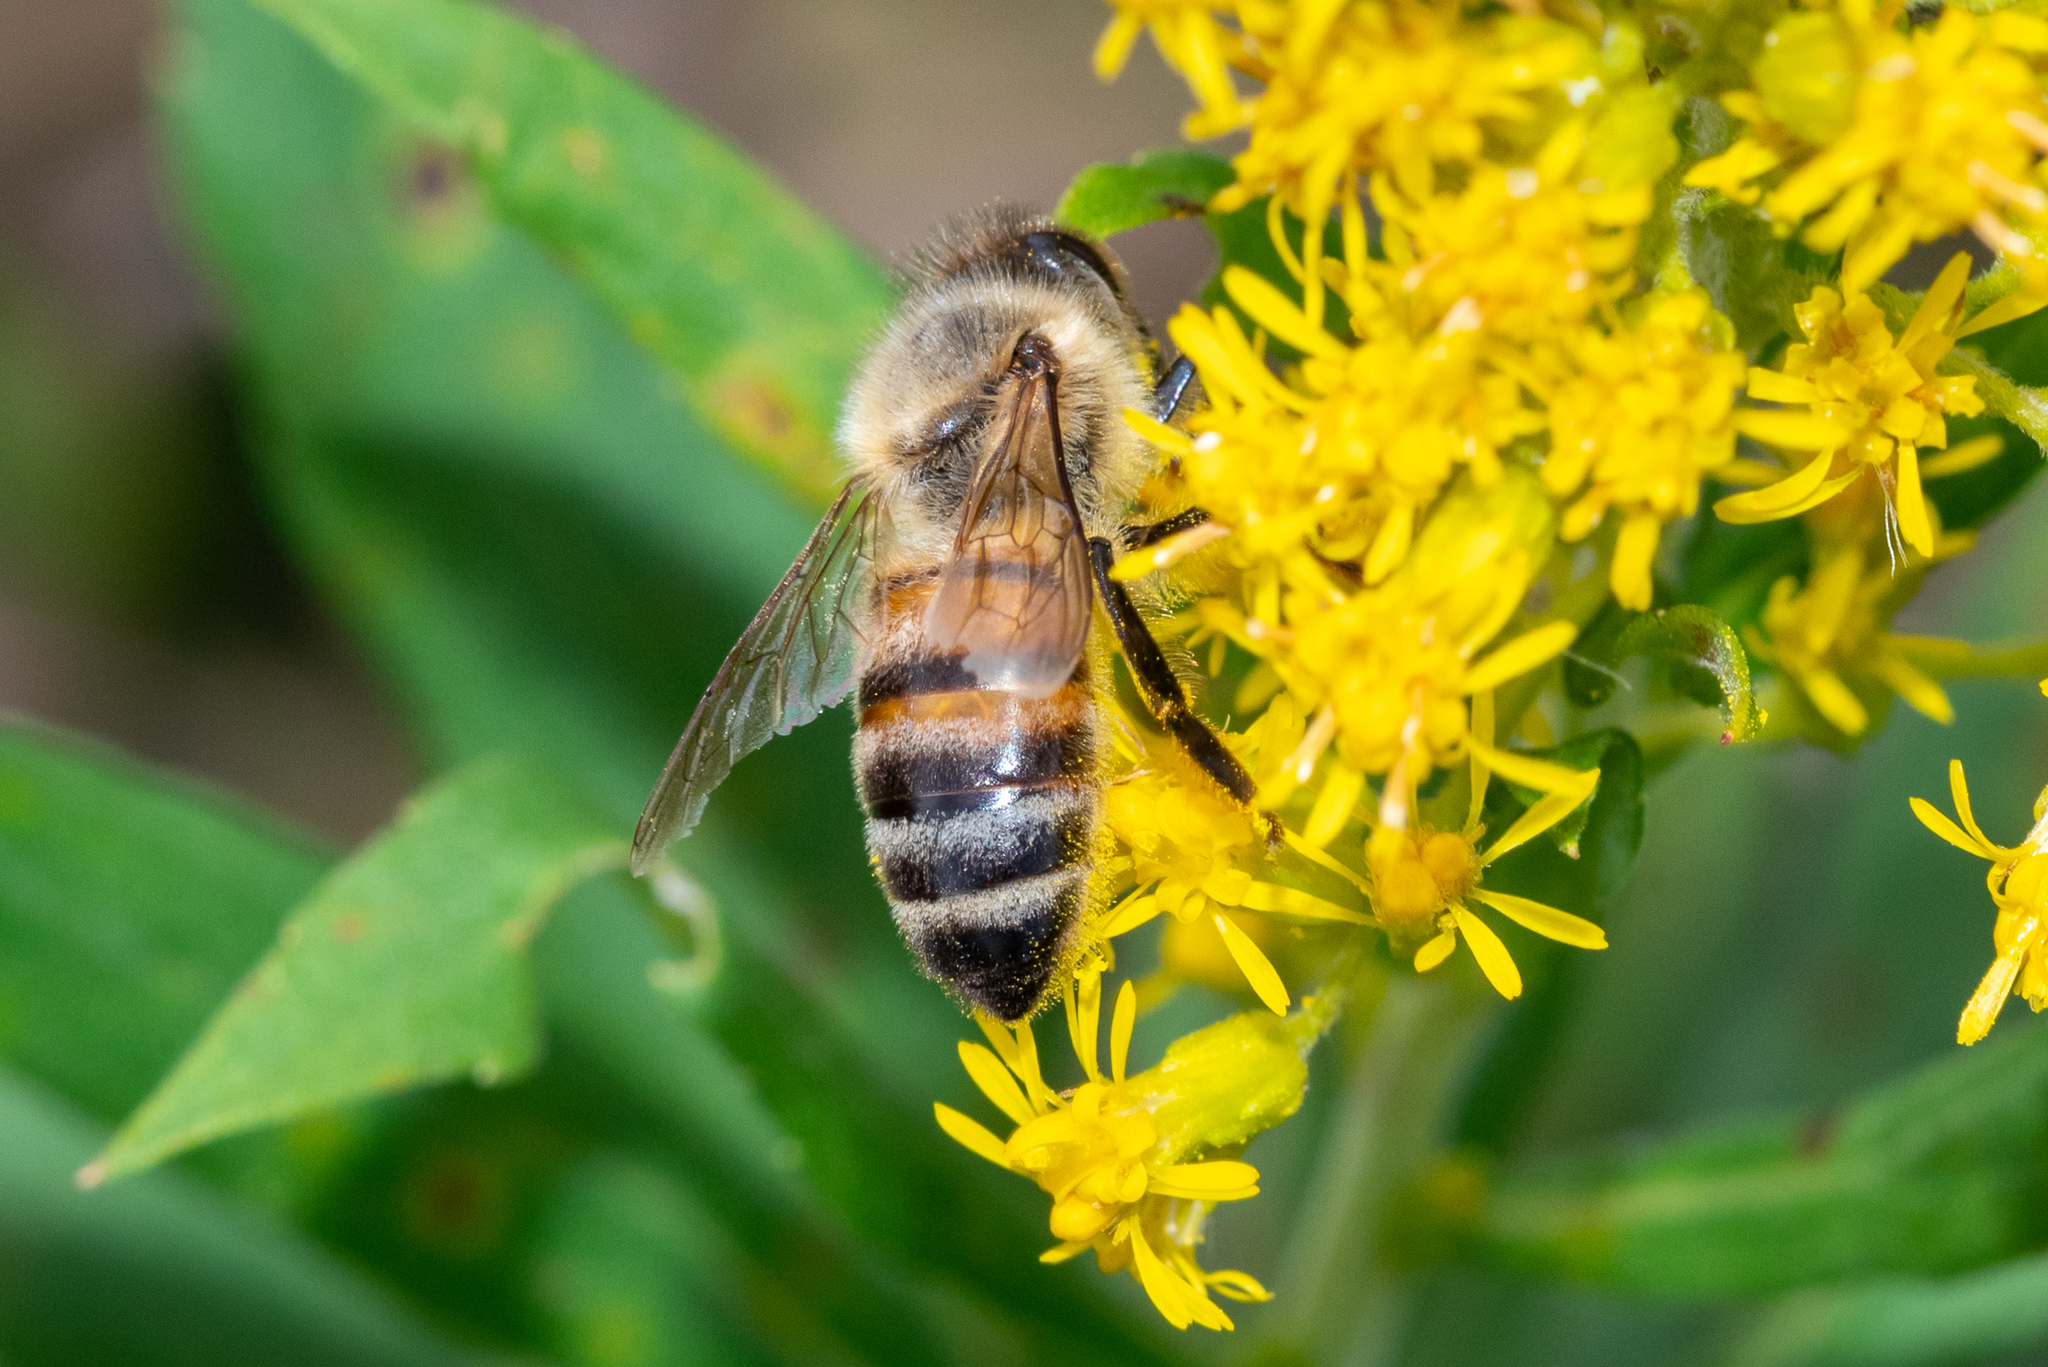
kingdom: Animalia
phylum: Arthropoda
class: Insecta
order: Hymenoptera
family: Apidae
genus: Apis
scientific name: Apis mellifera
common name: Honey bee
